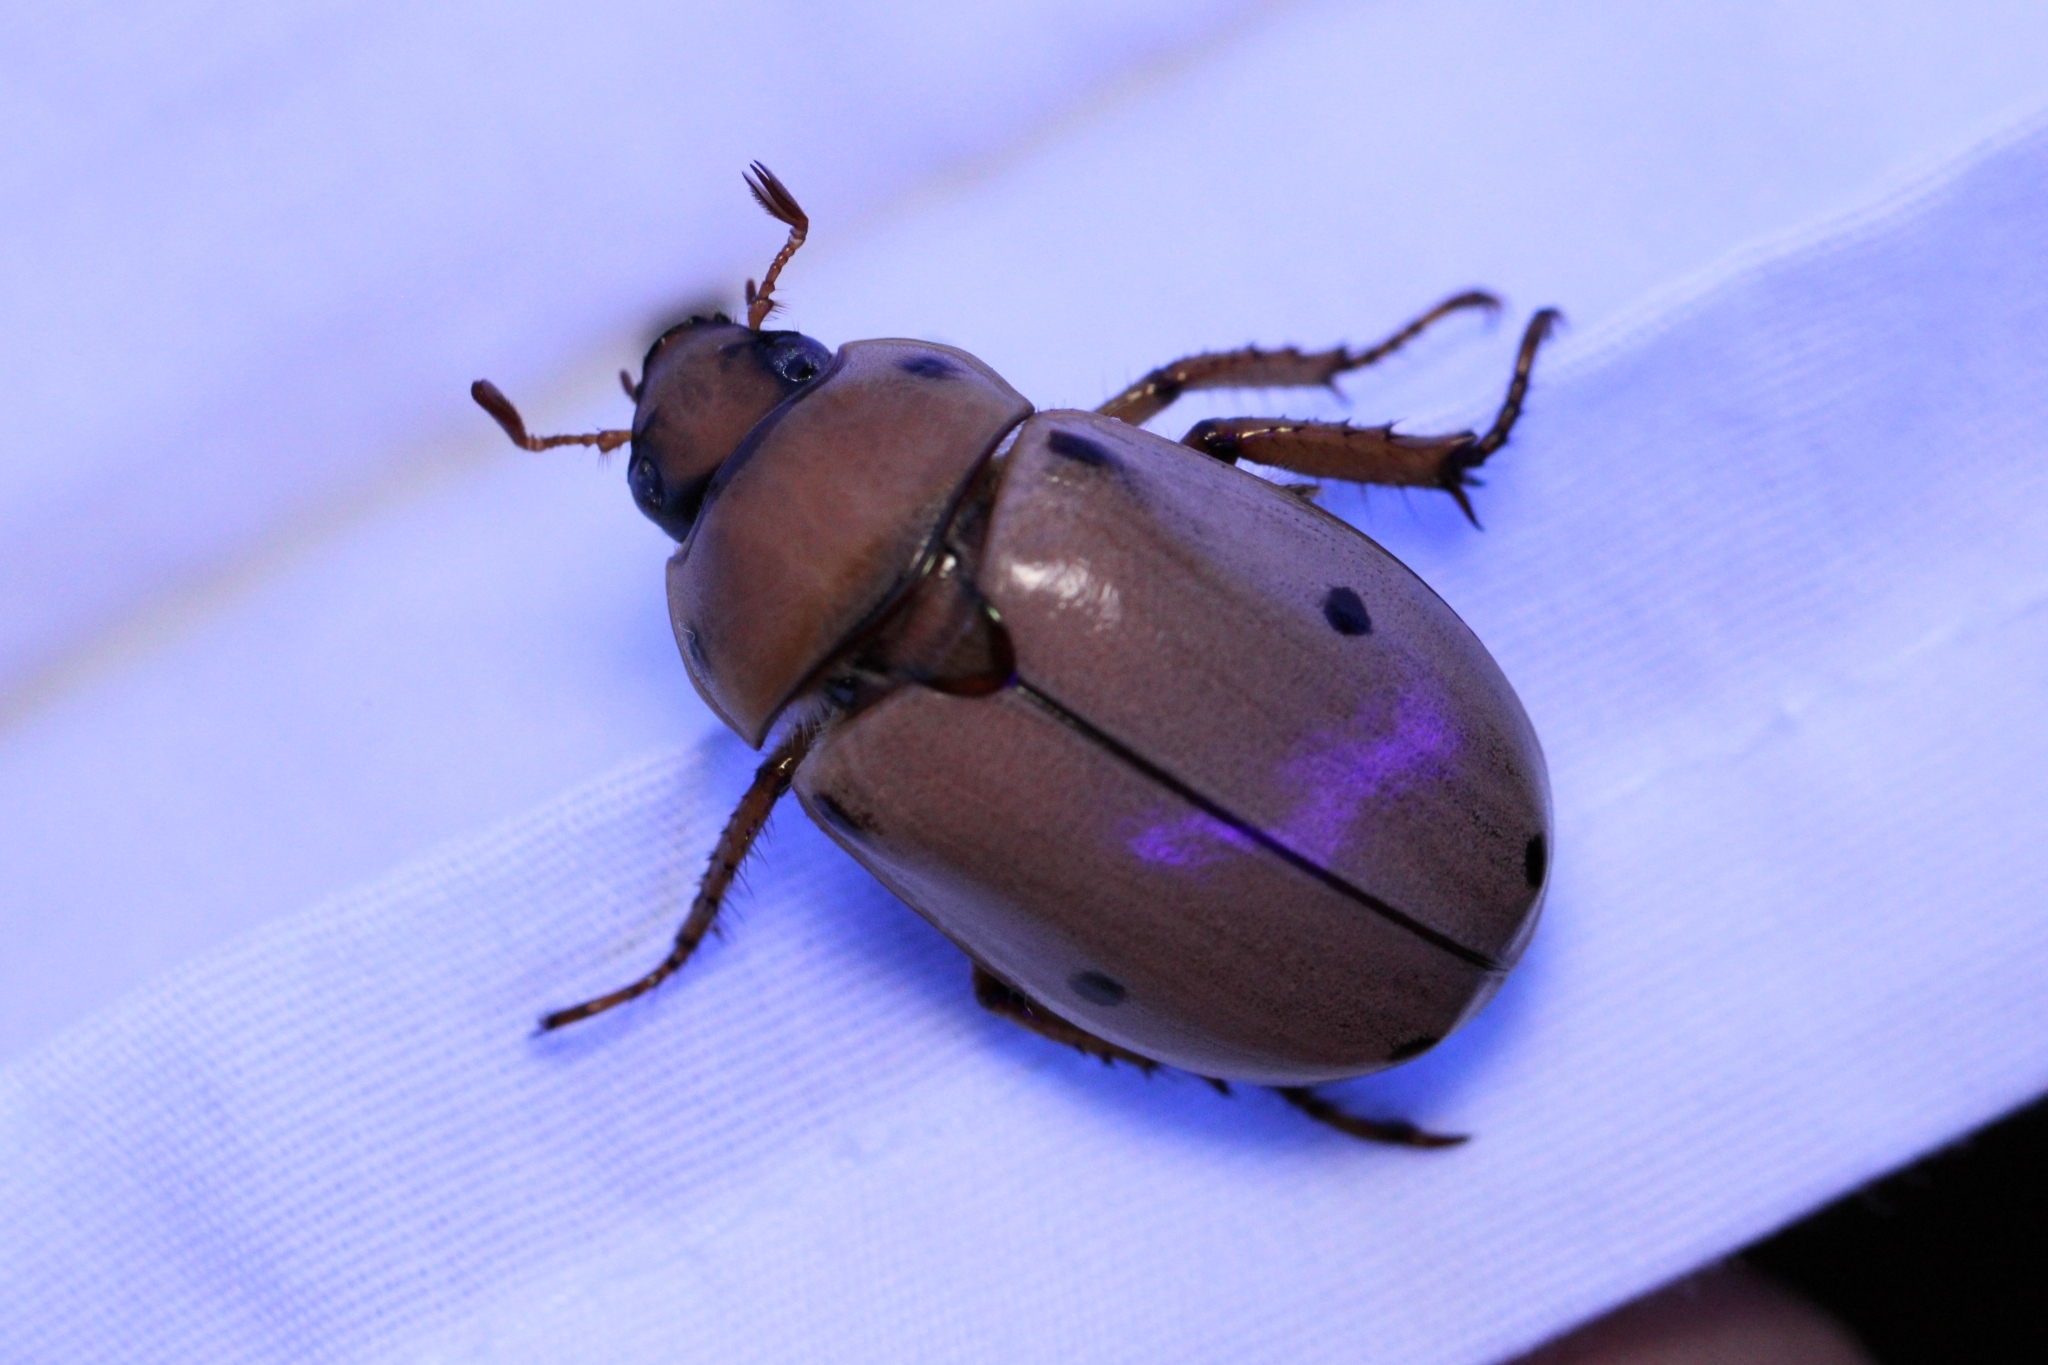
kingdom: Animalia
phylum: Arthropoda
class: Insecta
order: Coleoptera
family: Scarabaeidae
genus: Pelidnota
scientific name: Pelidnota punctata
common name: Grapevine beetle
